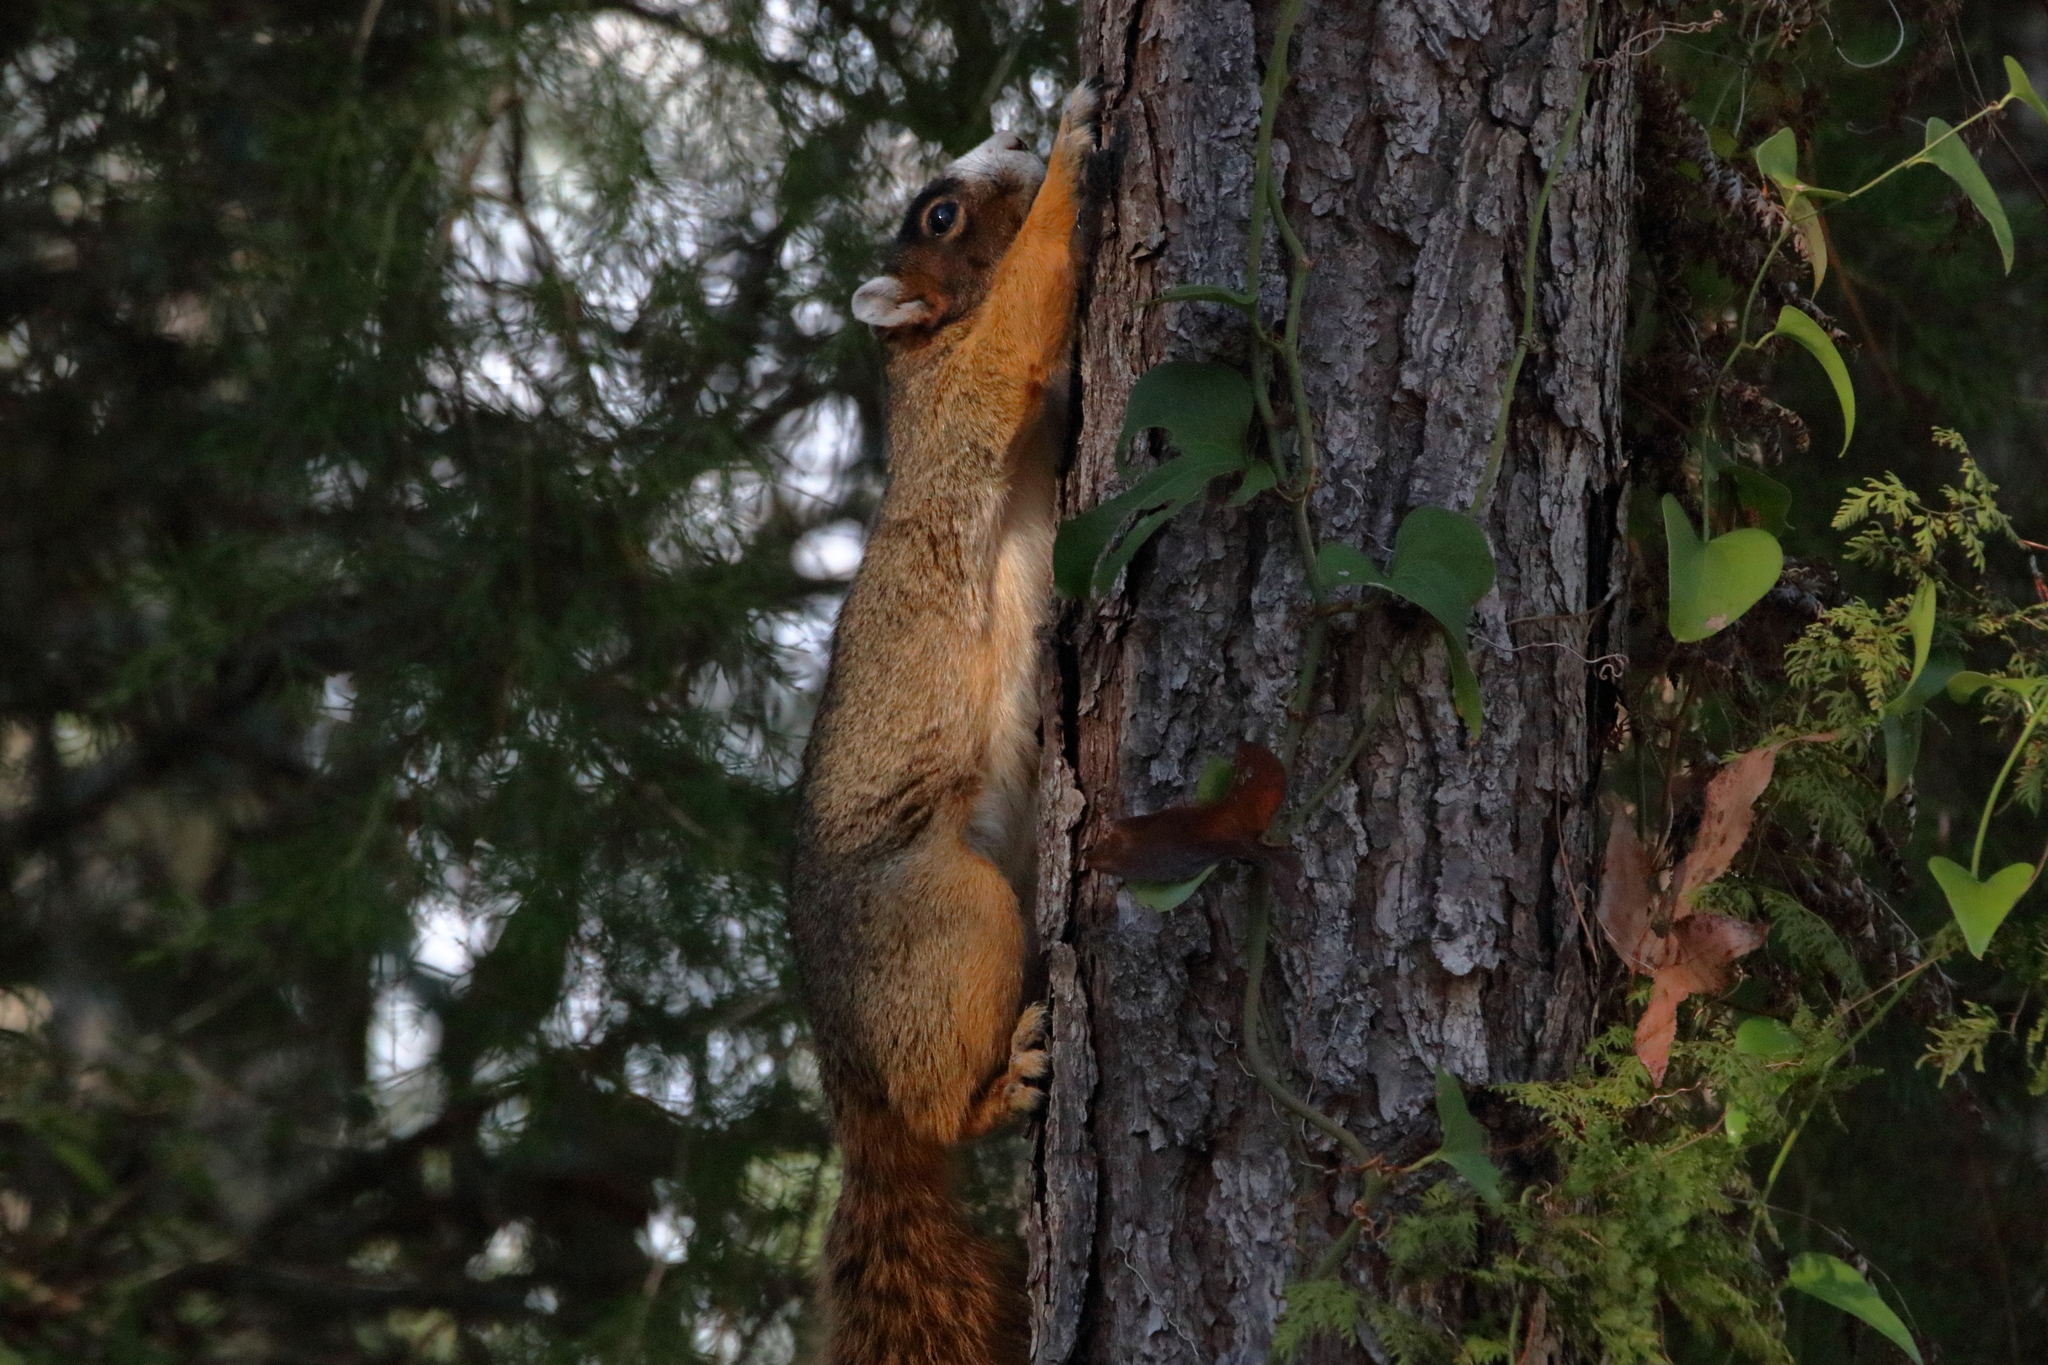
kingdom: Animalia
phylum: Chordata
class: Mammalia
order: Rodentia
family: Sciuridae
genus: Sciurus
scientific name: Sciurus niger
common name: Fox squirrel
